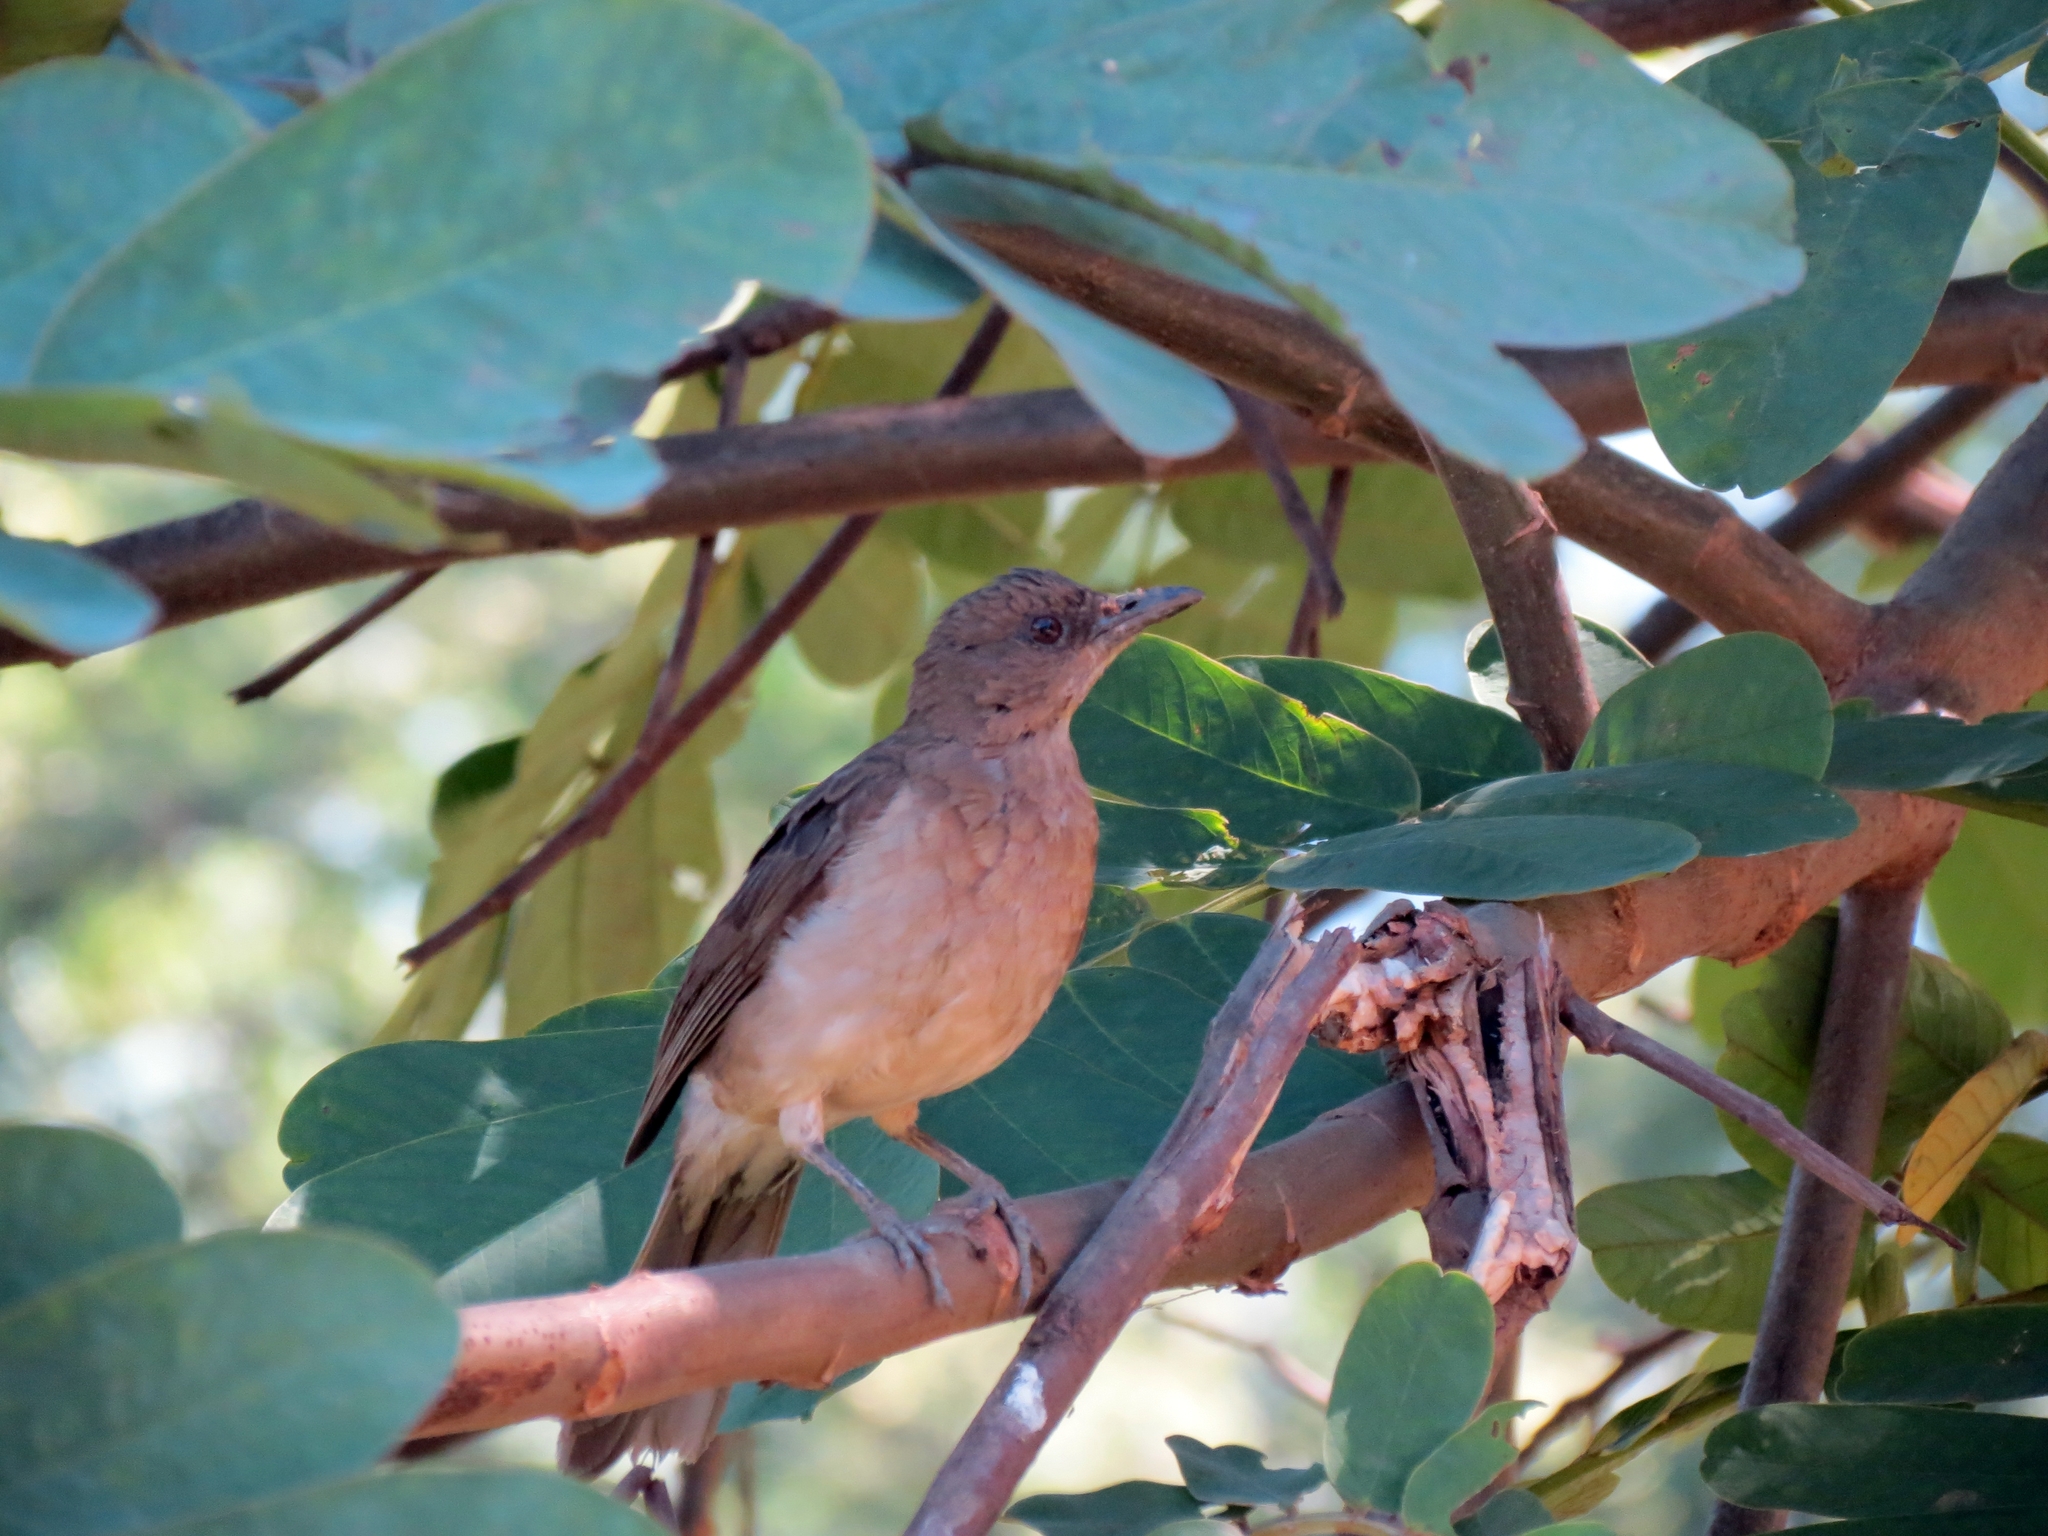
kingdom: Animalia
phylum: Chordata
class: Aves
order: Passeriformes
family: Turdidae
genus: Turdus
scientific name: Turdus ignobilis
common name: Black-billed thrush
